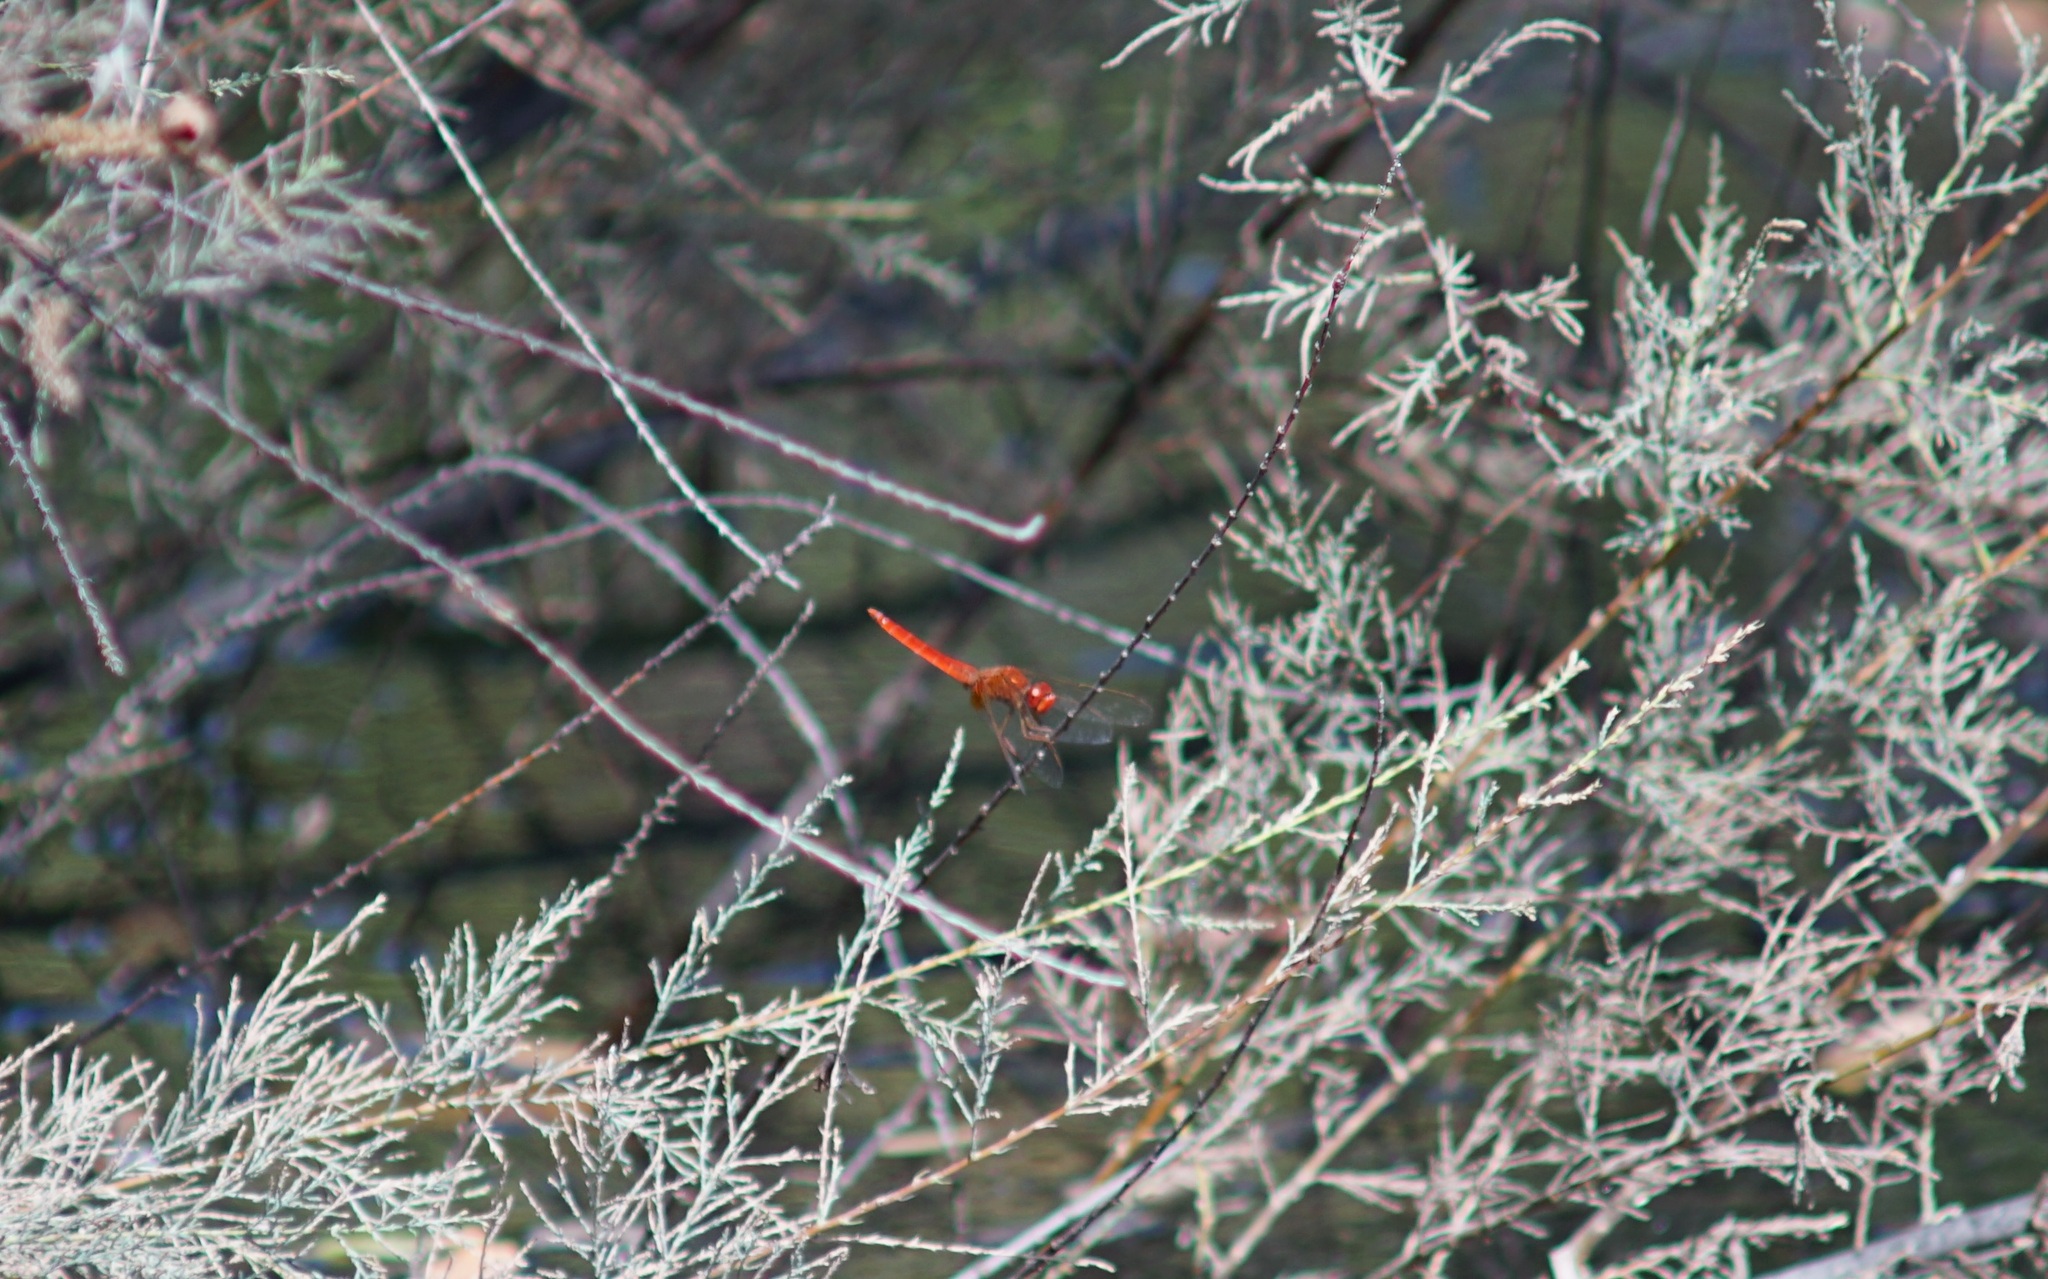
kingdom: Animalia
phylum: Arthropoda
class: Insecta
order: Odonata
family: Libellulidae
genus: Crocothemis
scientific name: Crocothemis erythraea
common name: Scarlet dragonfly
